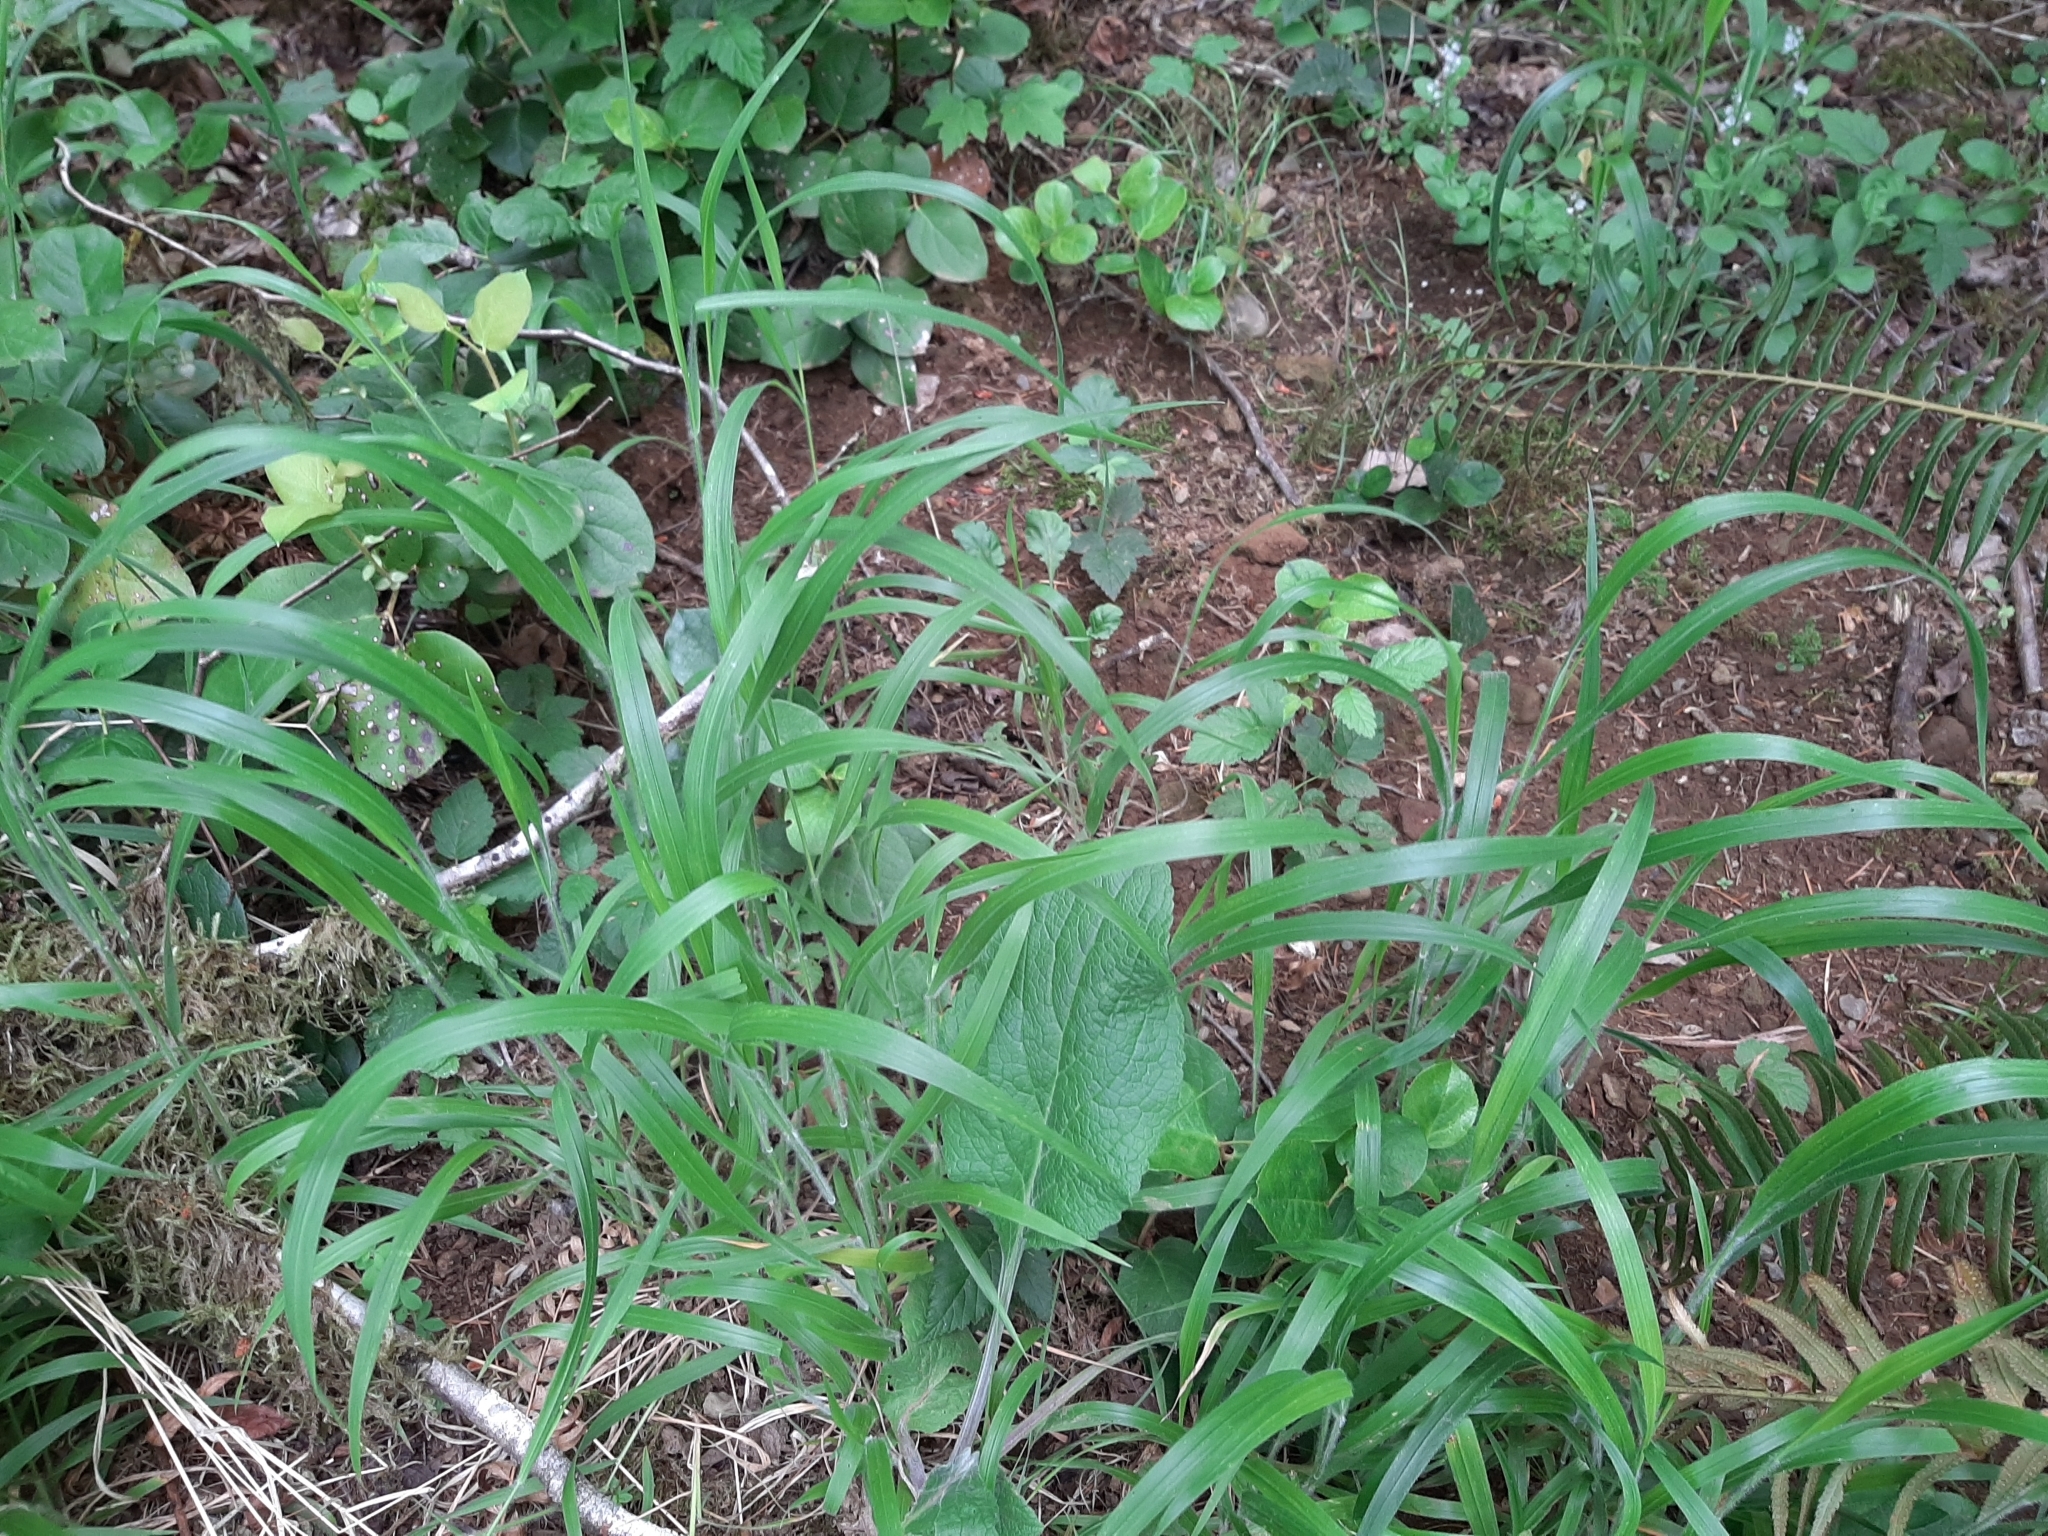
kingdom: Plantae
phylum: Tracheophyta
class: Liliopsida
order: Poales
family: Poaceae
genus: Brachypodium
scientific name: Brachypodium sylvaticum
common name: False-brome
